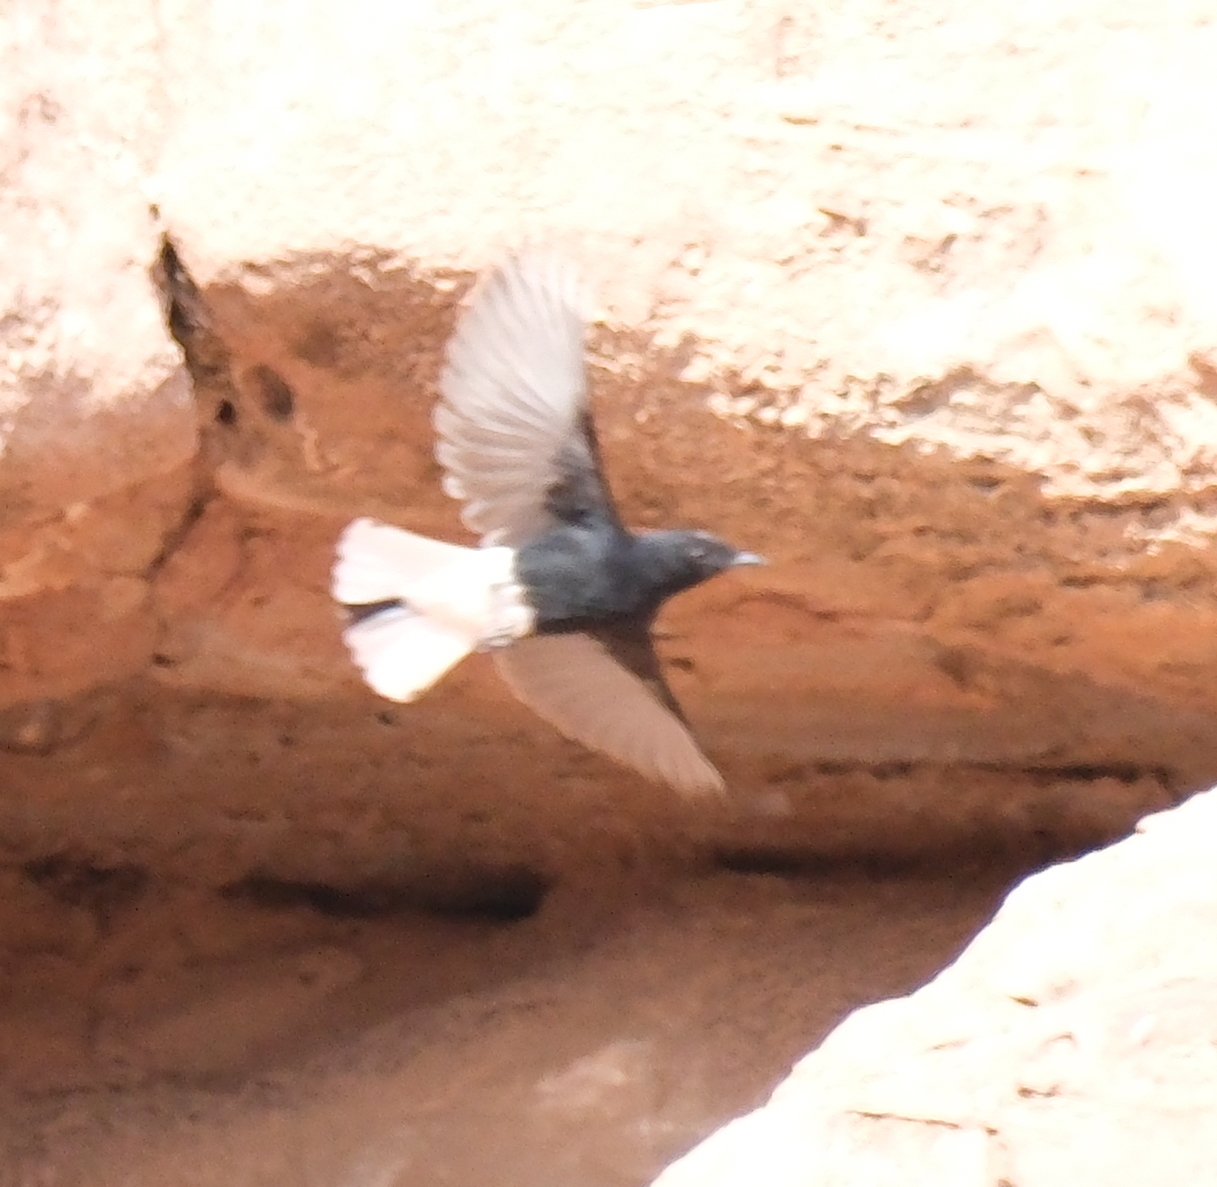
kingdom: Animalia
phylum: Chordata
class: Aves
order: Passeriformes
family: Muscicapidae
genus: Oenanthe
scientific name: Oenanthe leucopyga
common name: White-crowned wheatear
